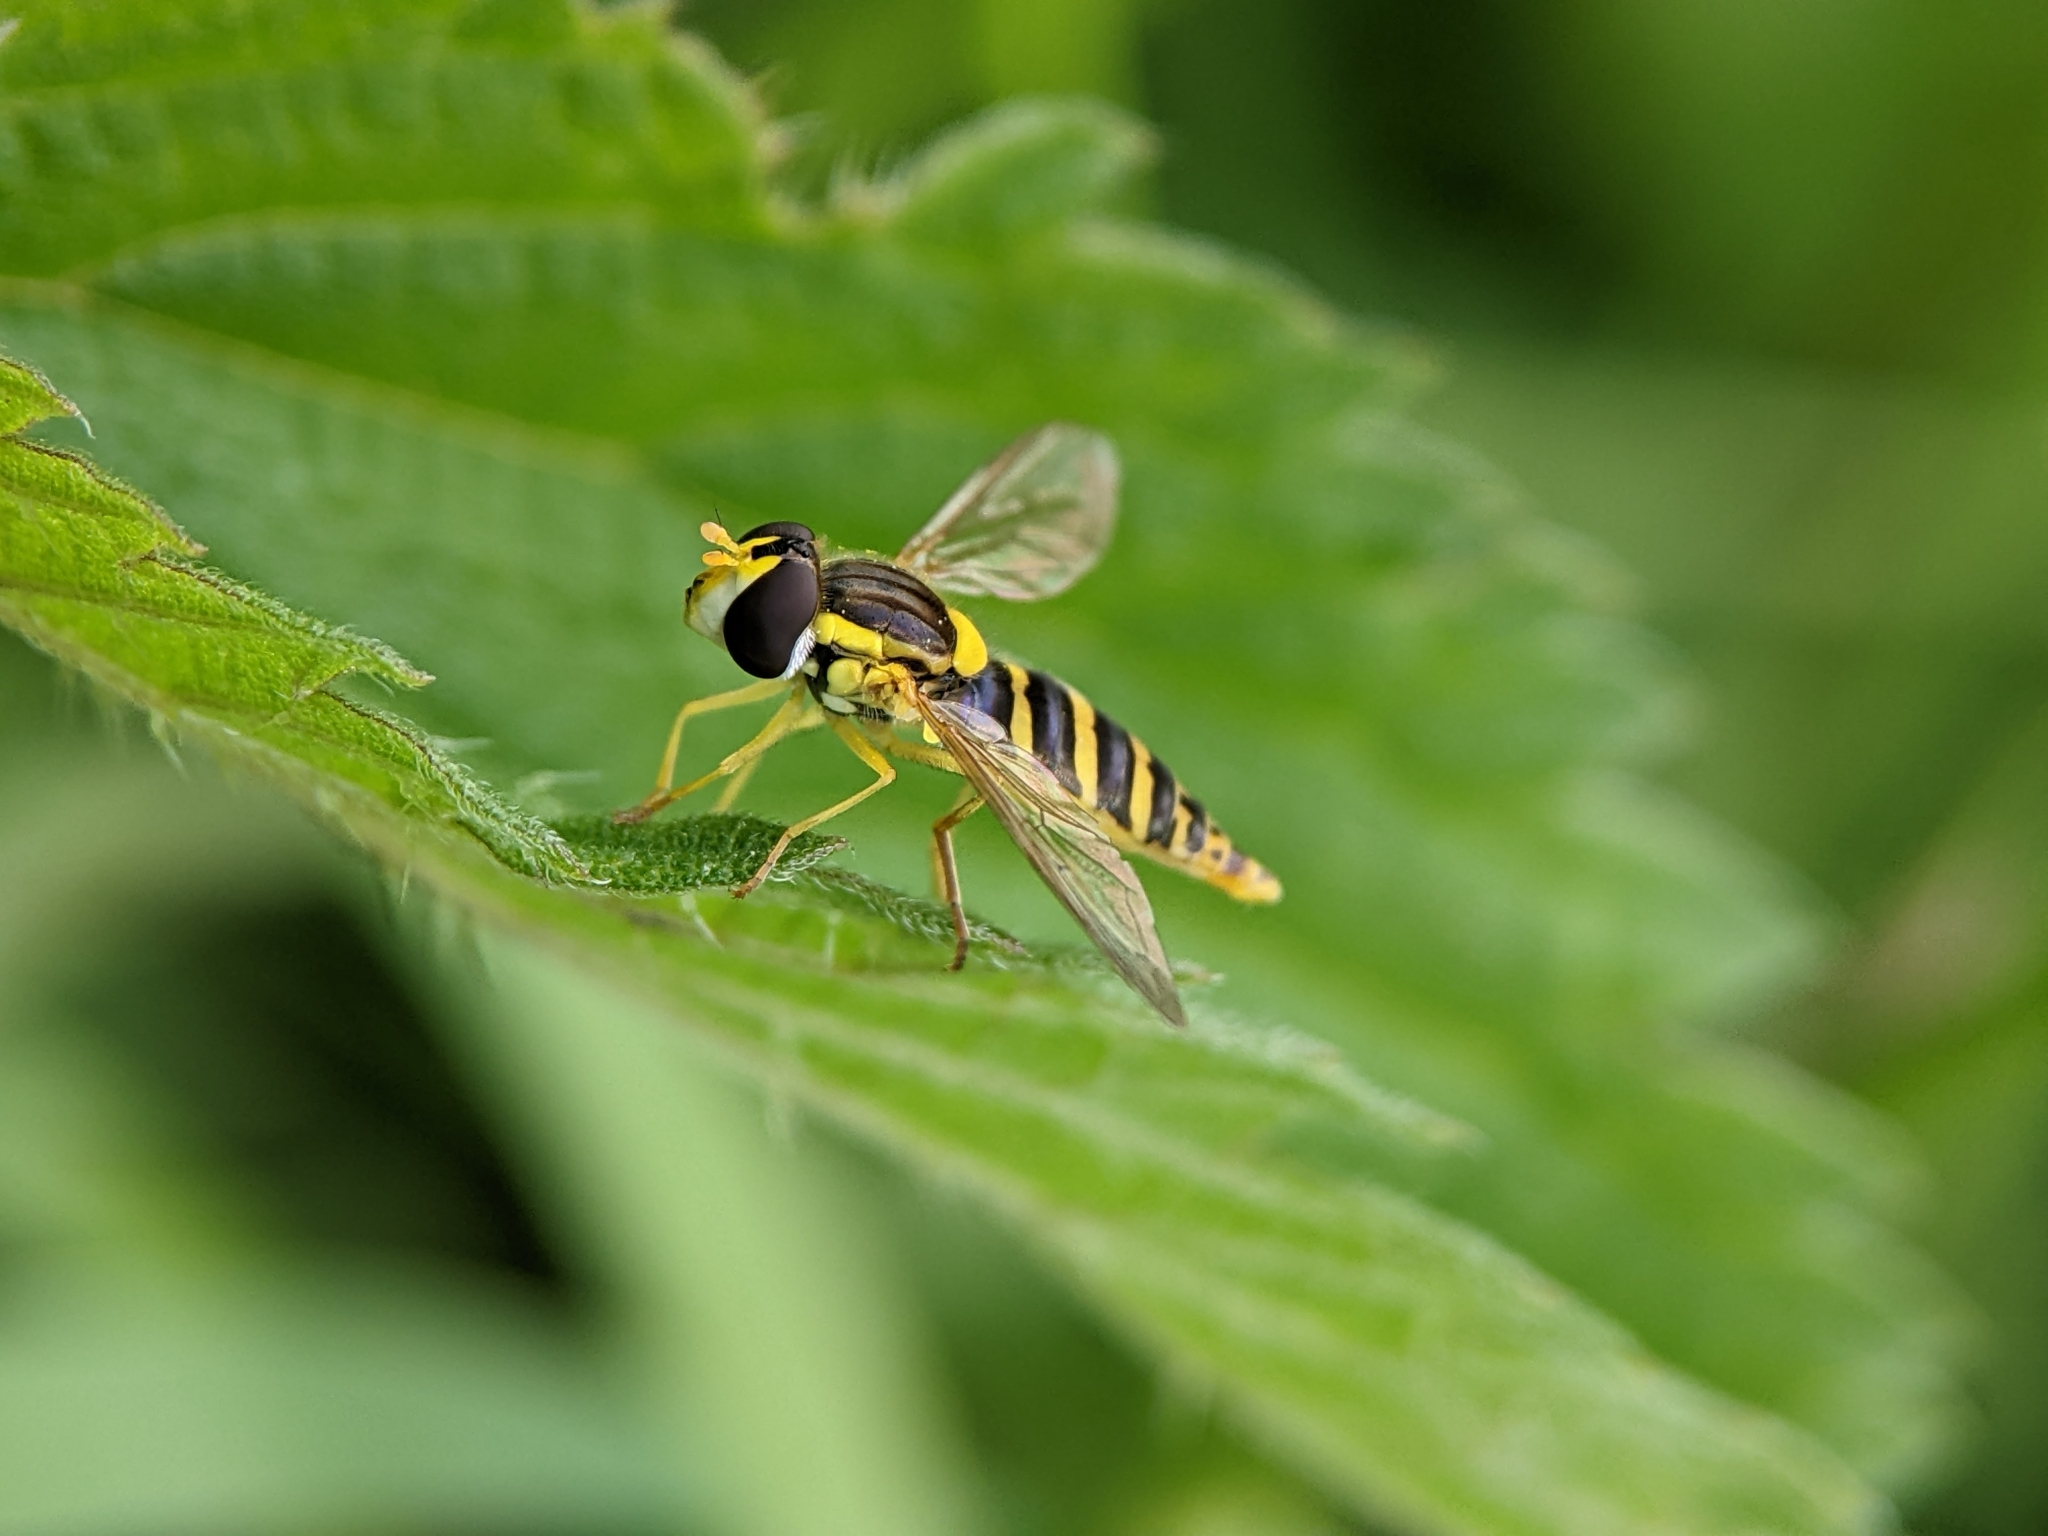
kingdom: Animalia
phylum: Arthropoda
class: Insecta
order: Diptera
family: Syrphidae
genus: Sphaerophoria
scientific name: Sphaerophoria
